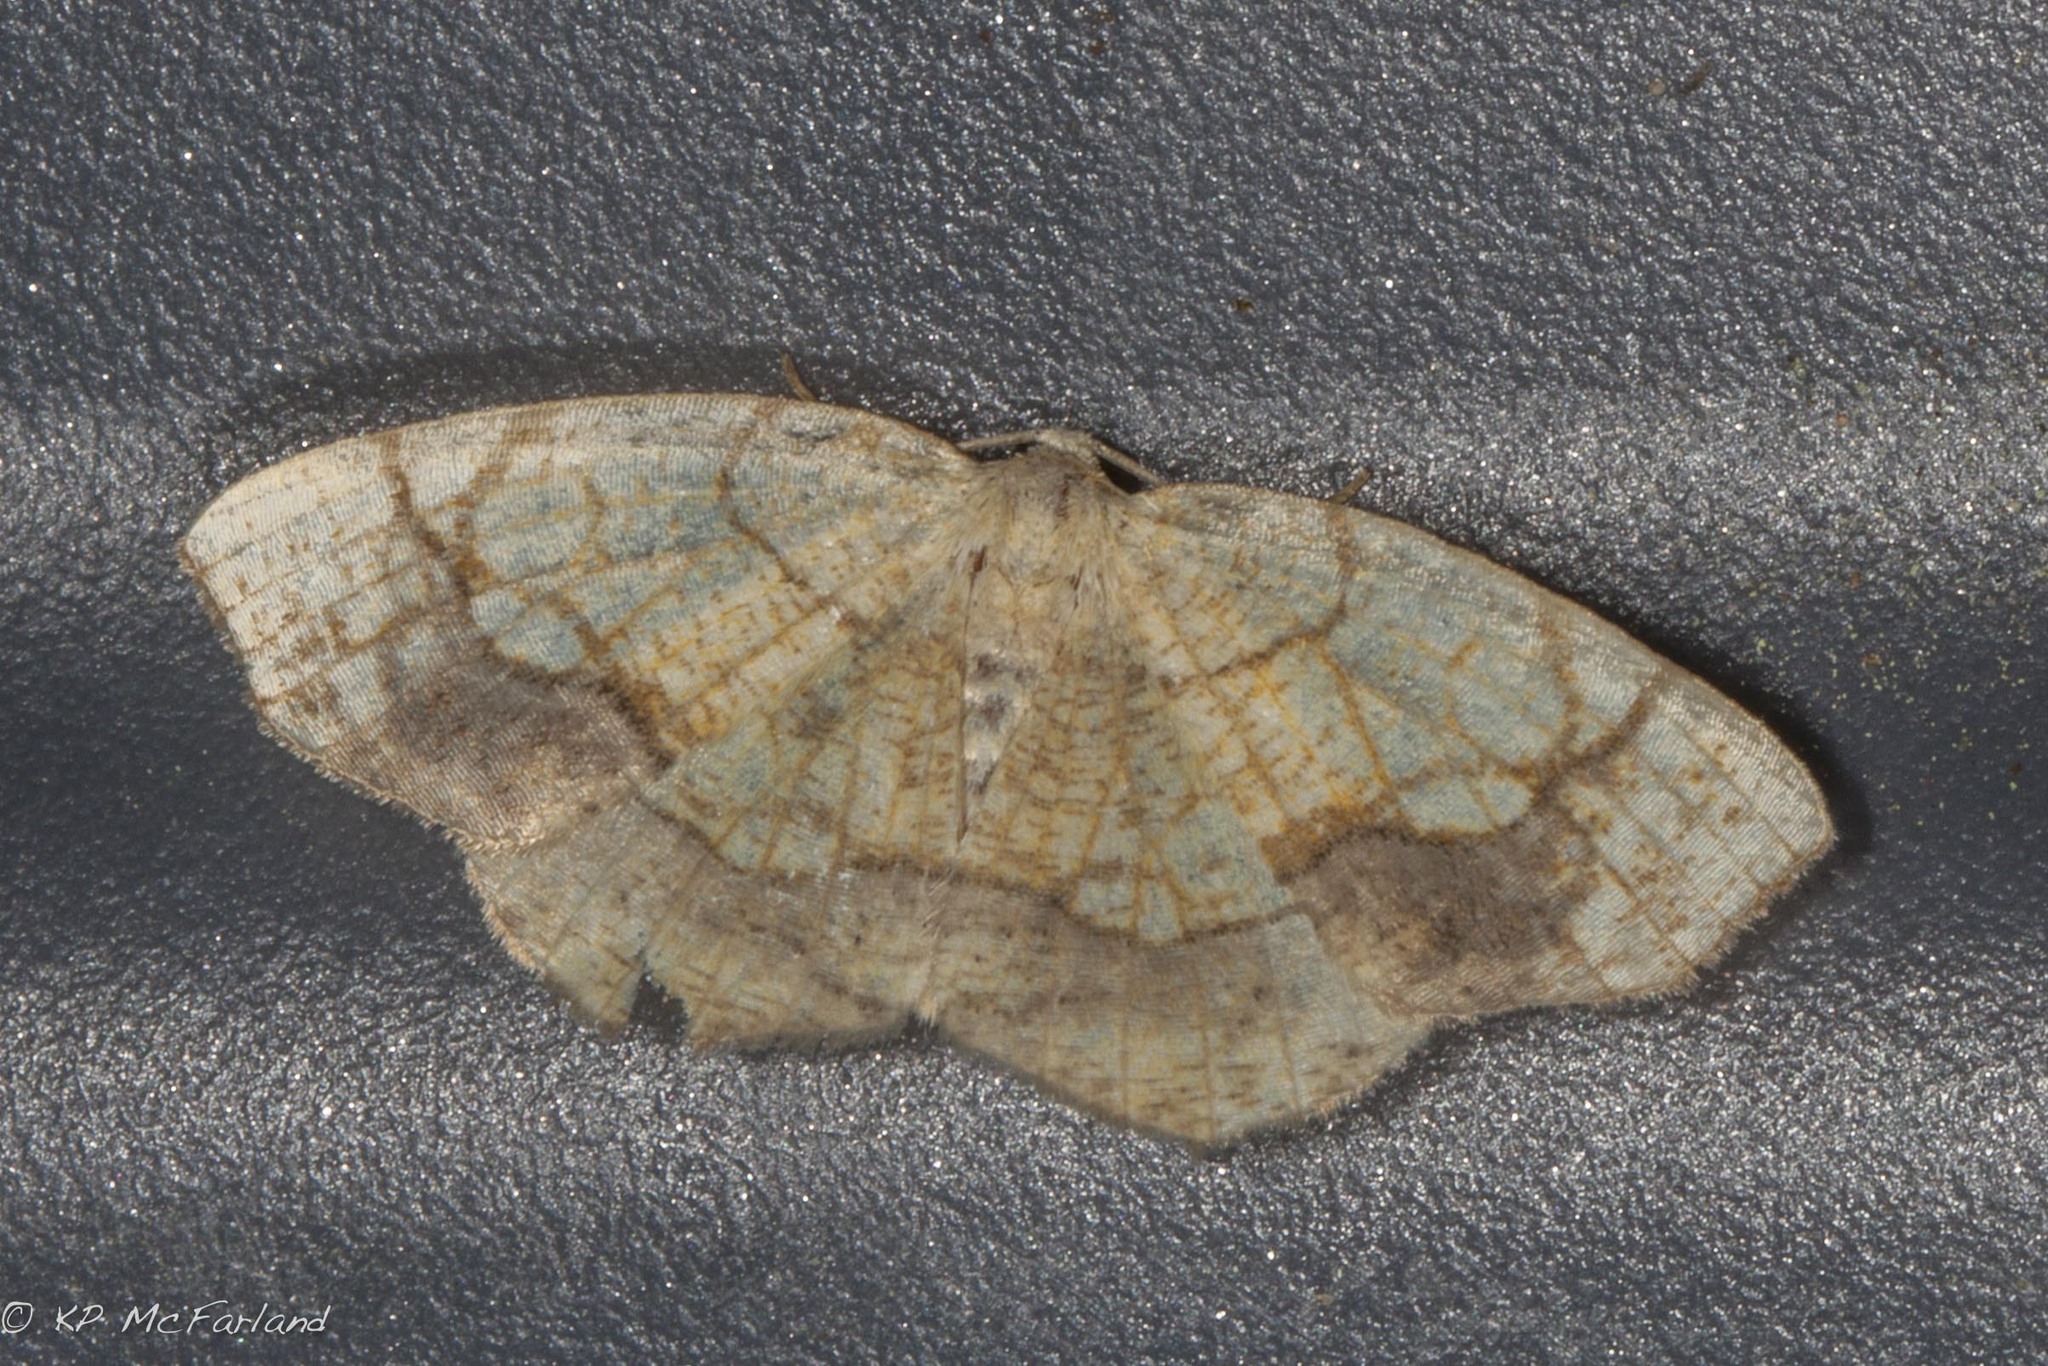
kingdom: Animalia
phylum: Arthropoda
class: Insecta
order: Lepidoptera
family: Geometridae
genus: Nematocampa
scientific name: Nematocampa resistaria
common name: Horned spanworm moth
